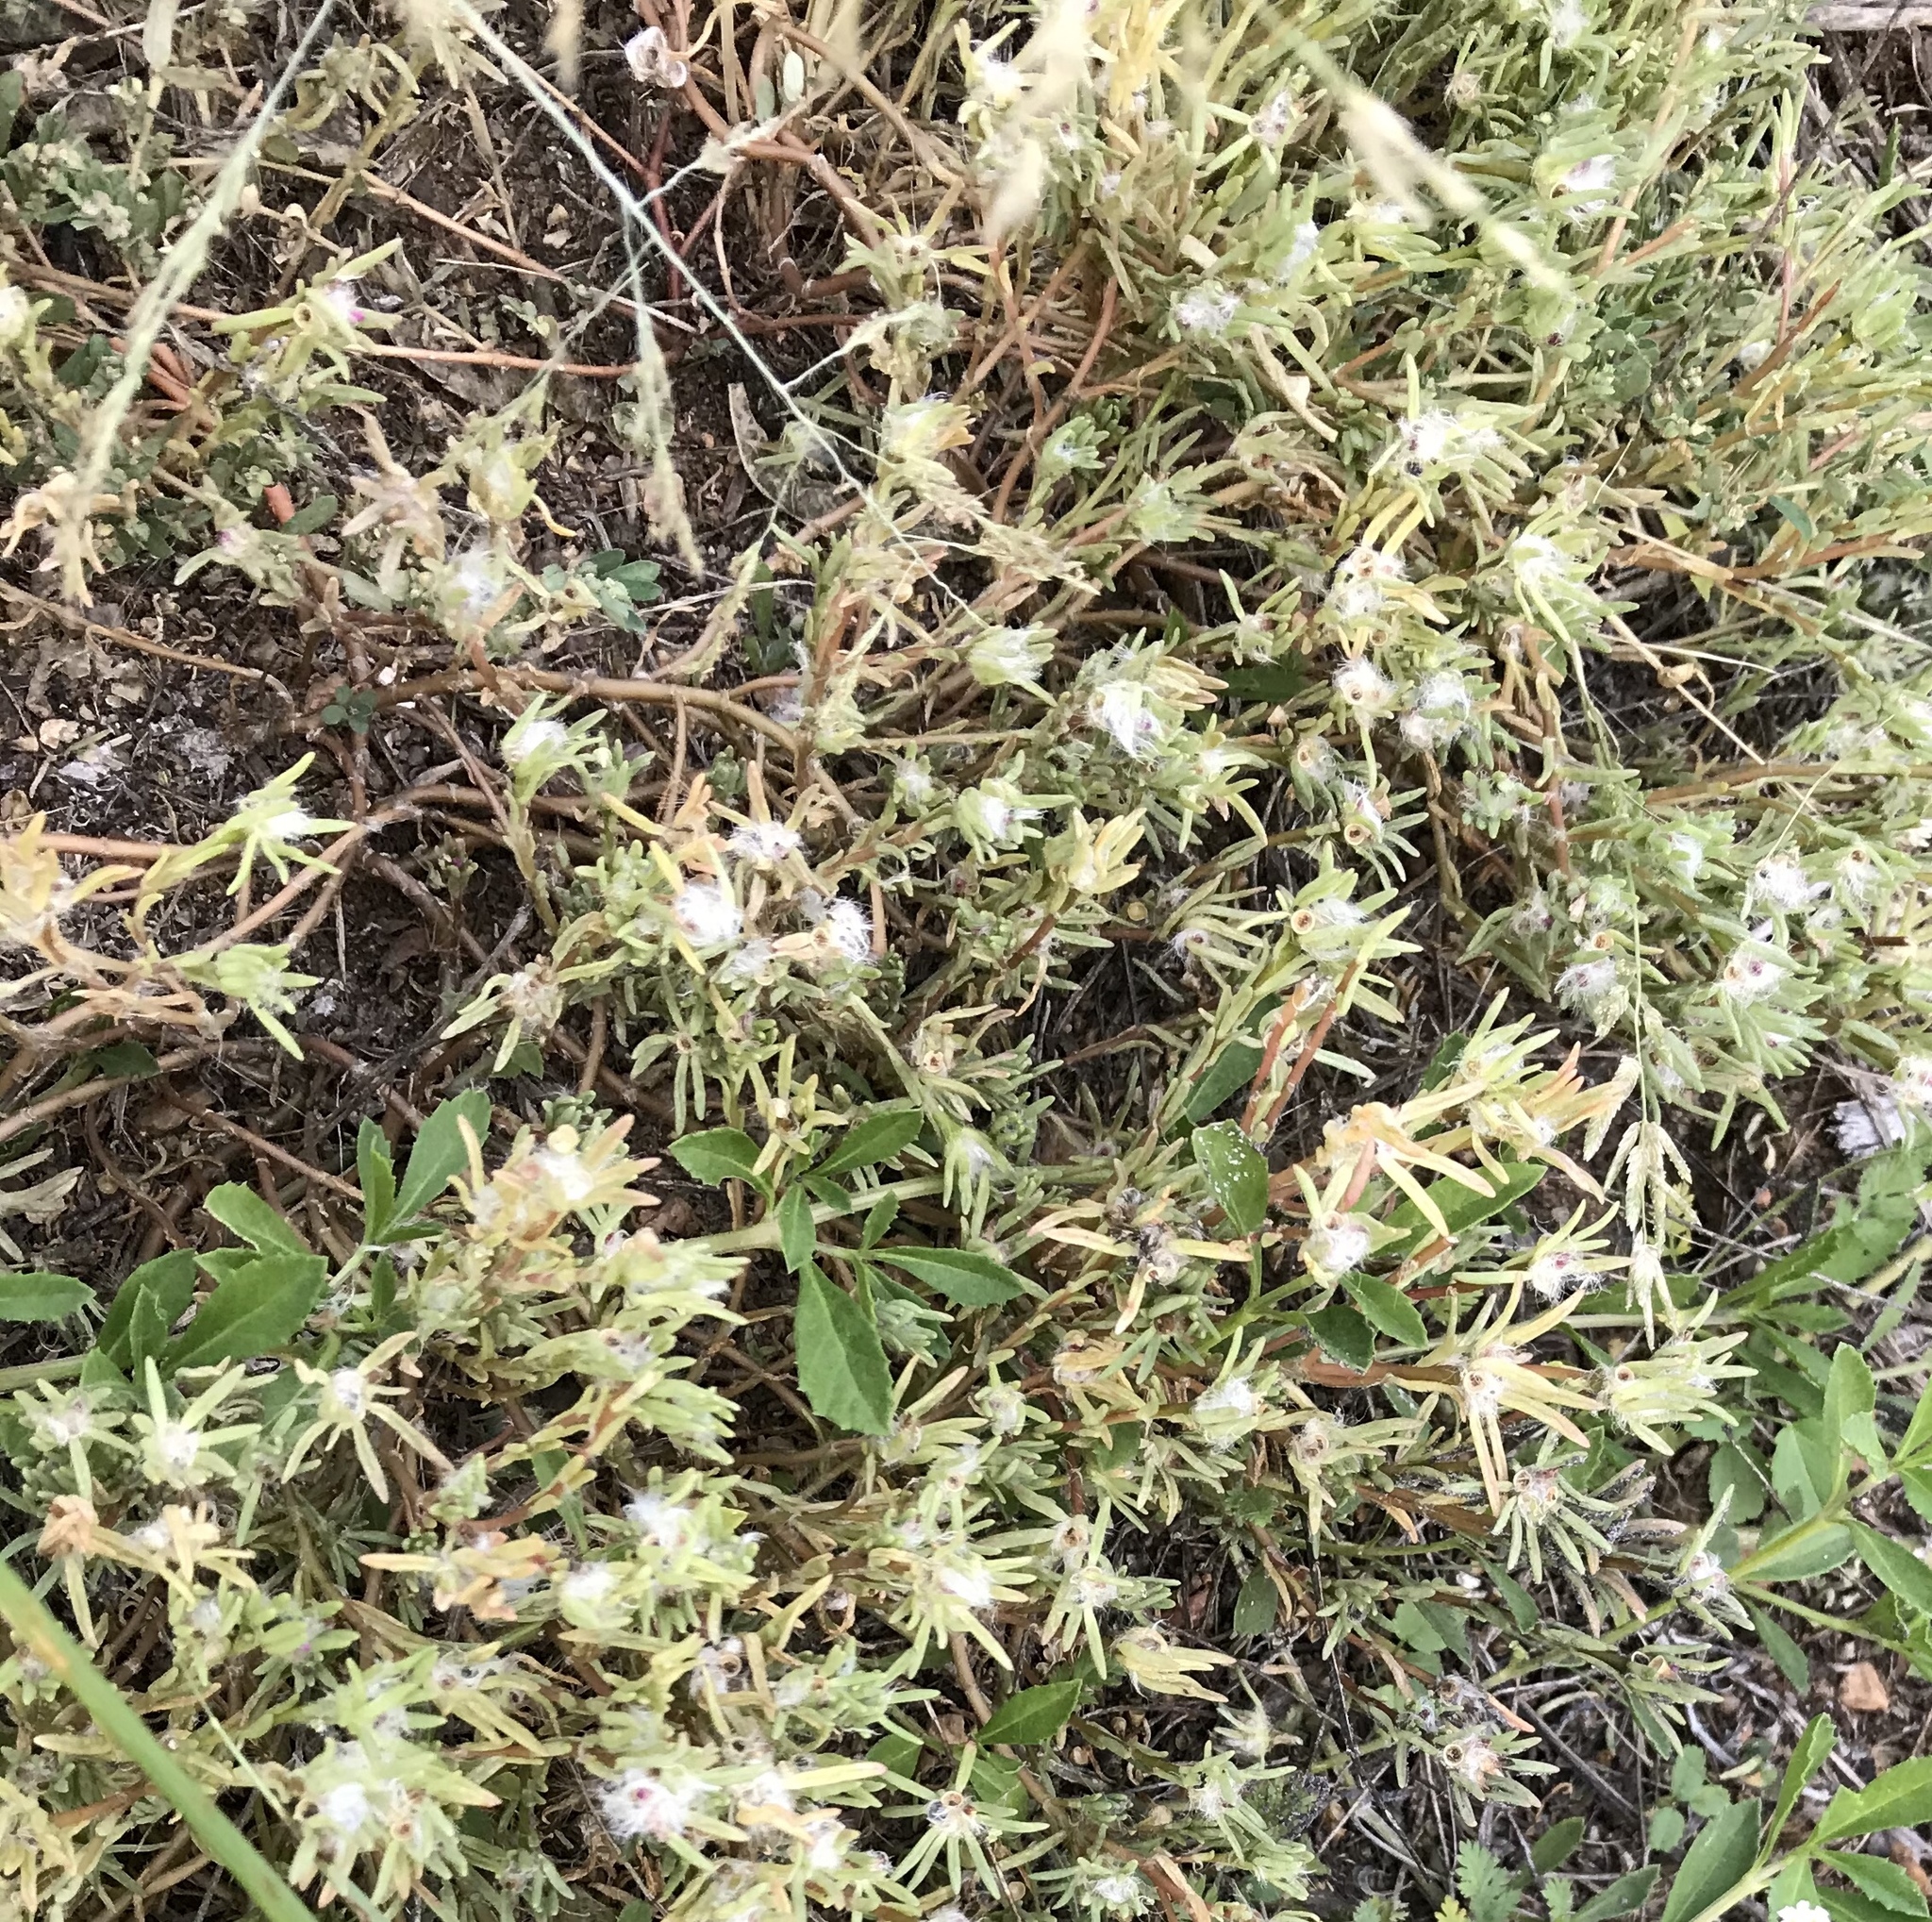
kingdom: Plantae
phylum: Tracheophyta
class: Magnoliopsida
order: Caryophyllales
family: Portulacaceae
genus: Portulaca
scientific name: Portulaca pilosa
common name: Kiss me quick
